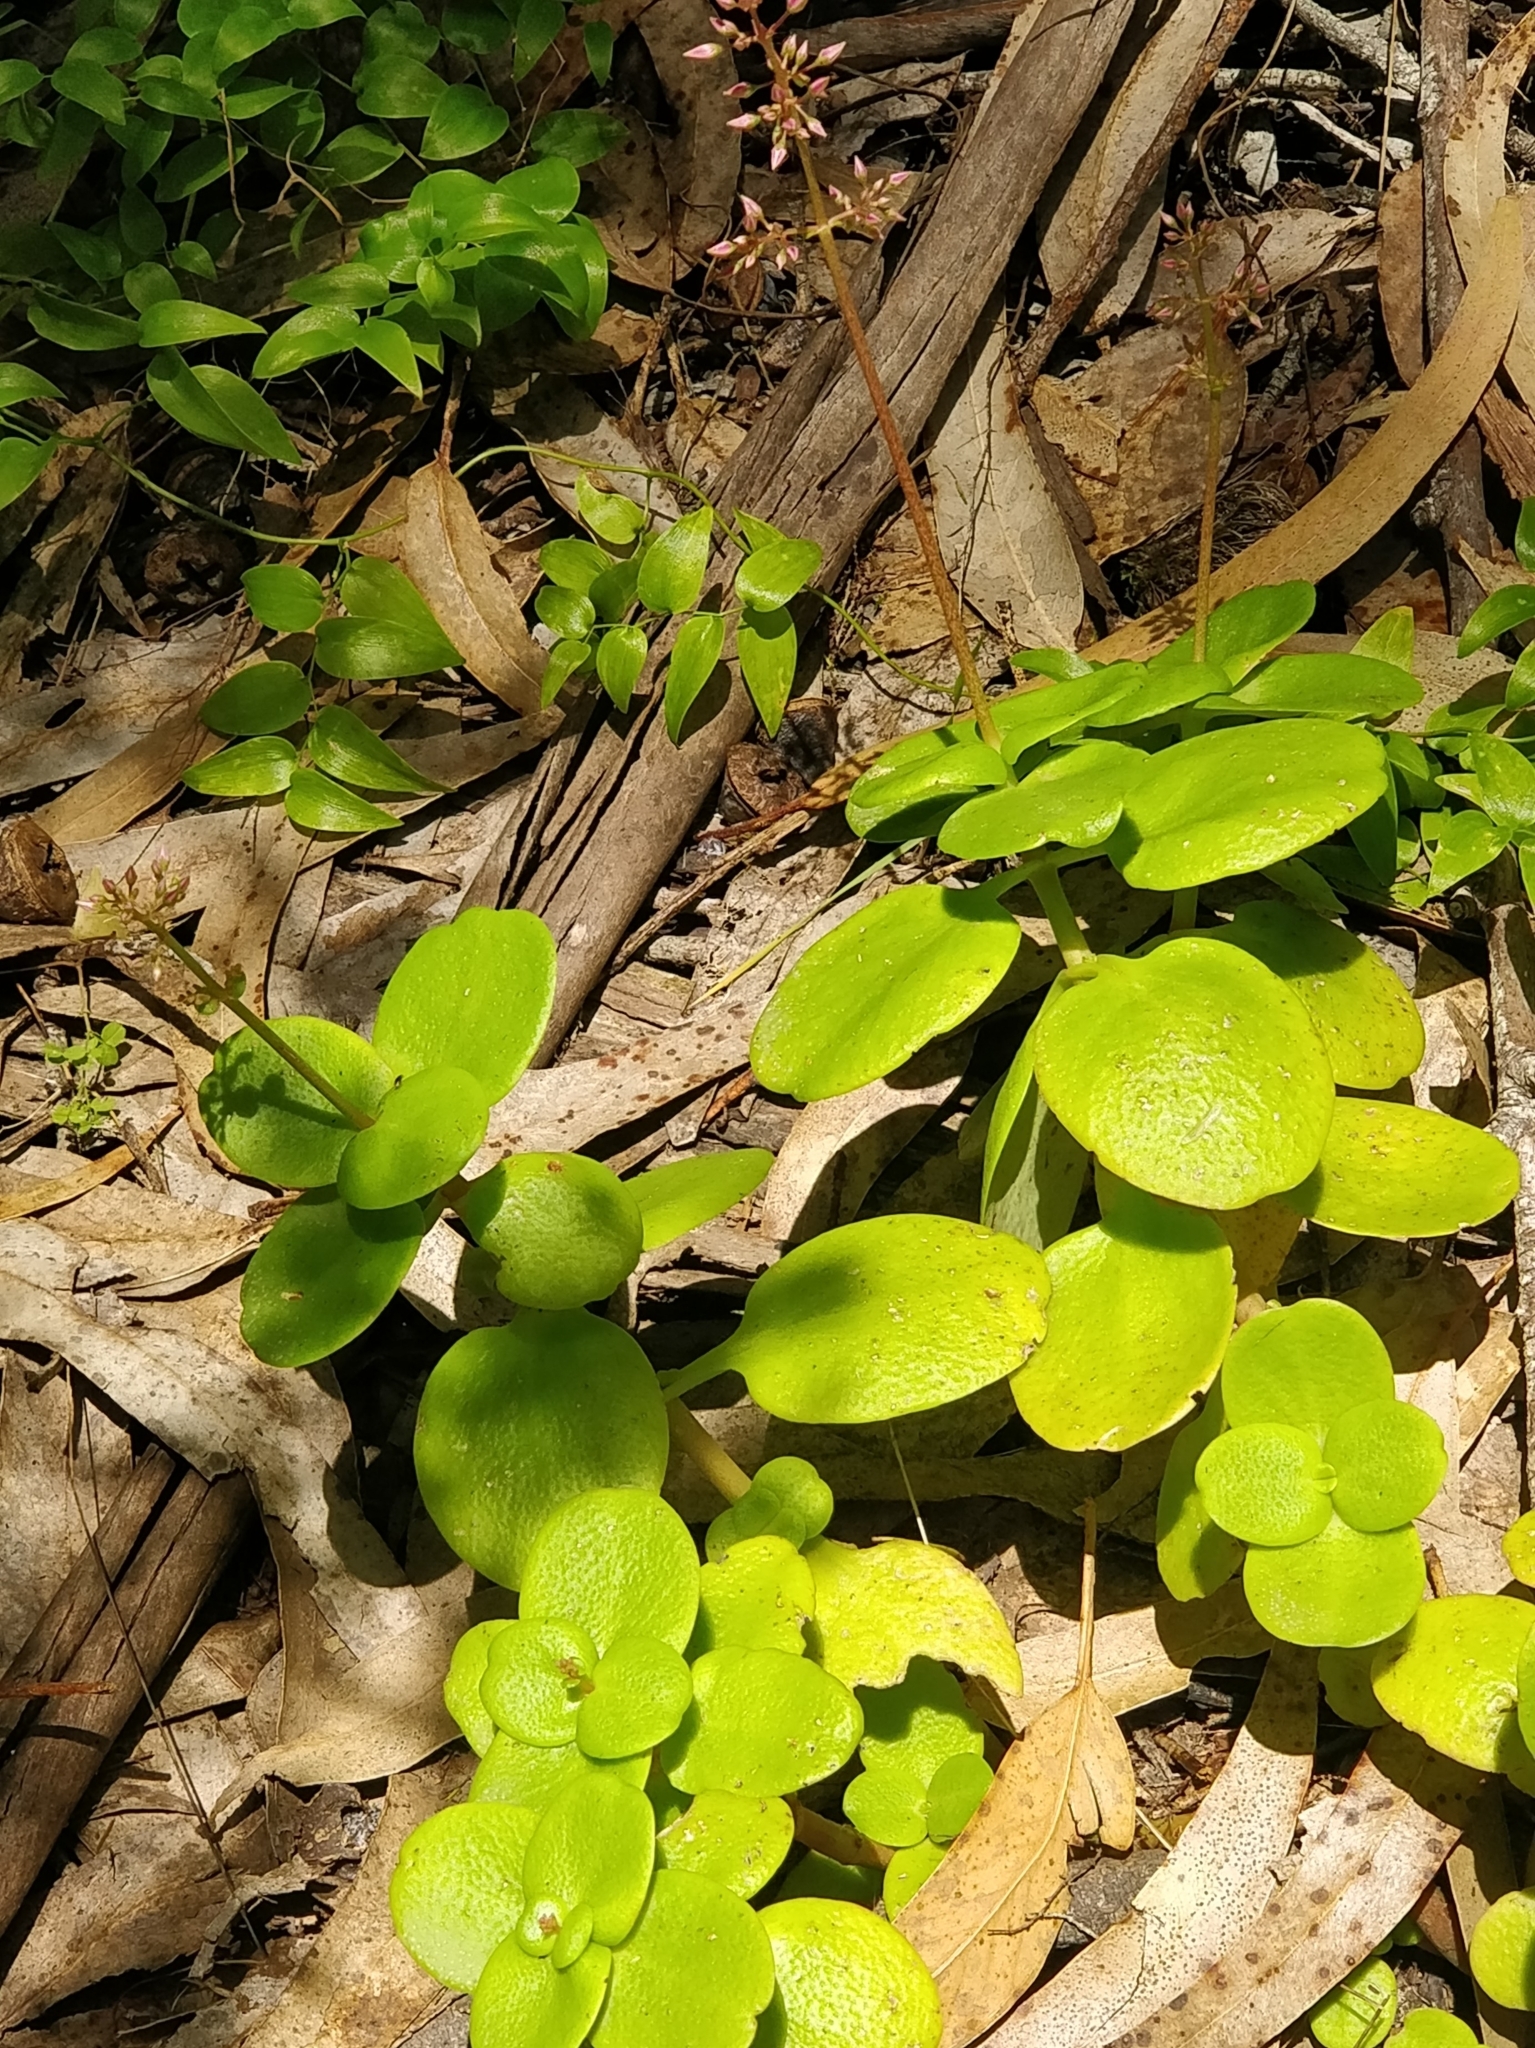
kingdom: Plantae
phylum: Tracheophyta
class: Magnoliopsida
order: Saxifragales
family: Crassulaceae
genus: Crassula
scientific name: Crassula multicava
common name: Cape province pygmyweed
